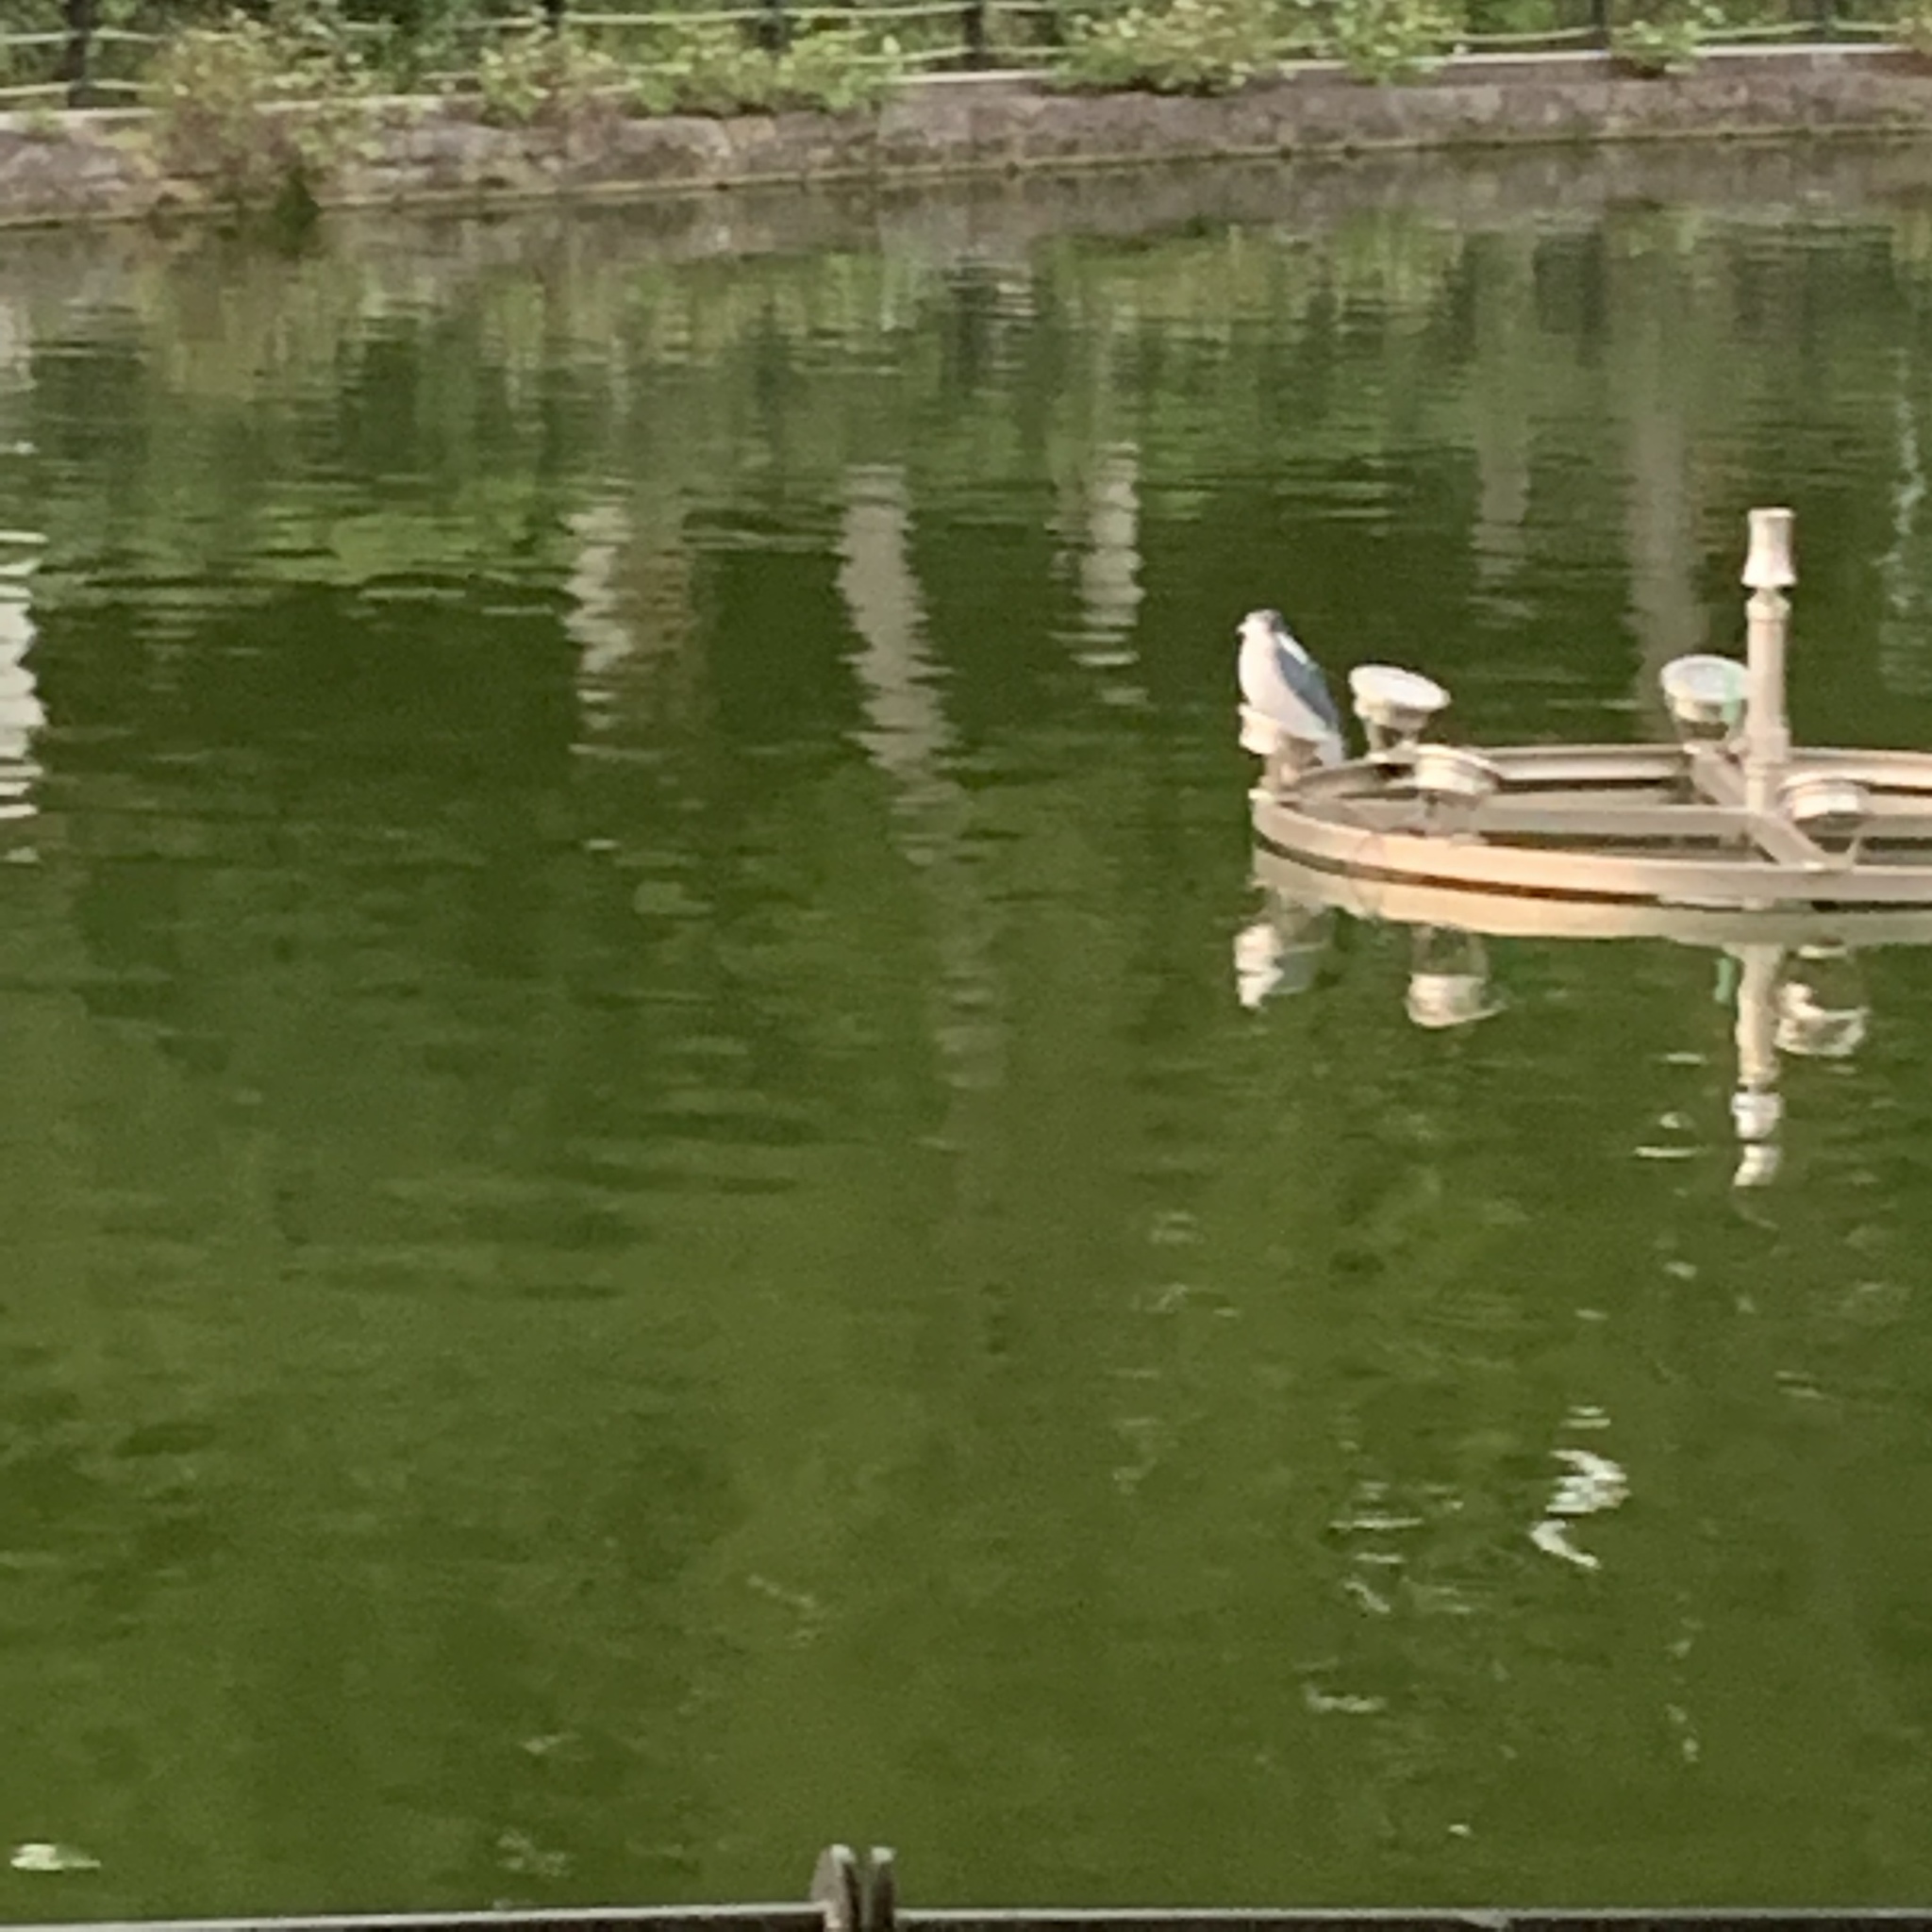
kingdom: Animalia
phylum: Chordata
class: Aves
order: Pelecaniformes
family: Ardeidae
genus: Nycticorax
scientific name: Nycticorax nycticorax
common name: Black-crowned night heron
